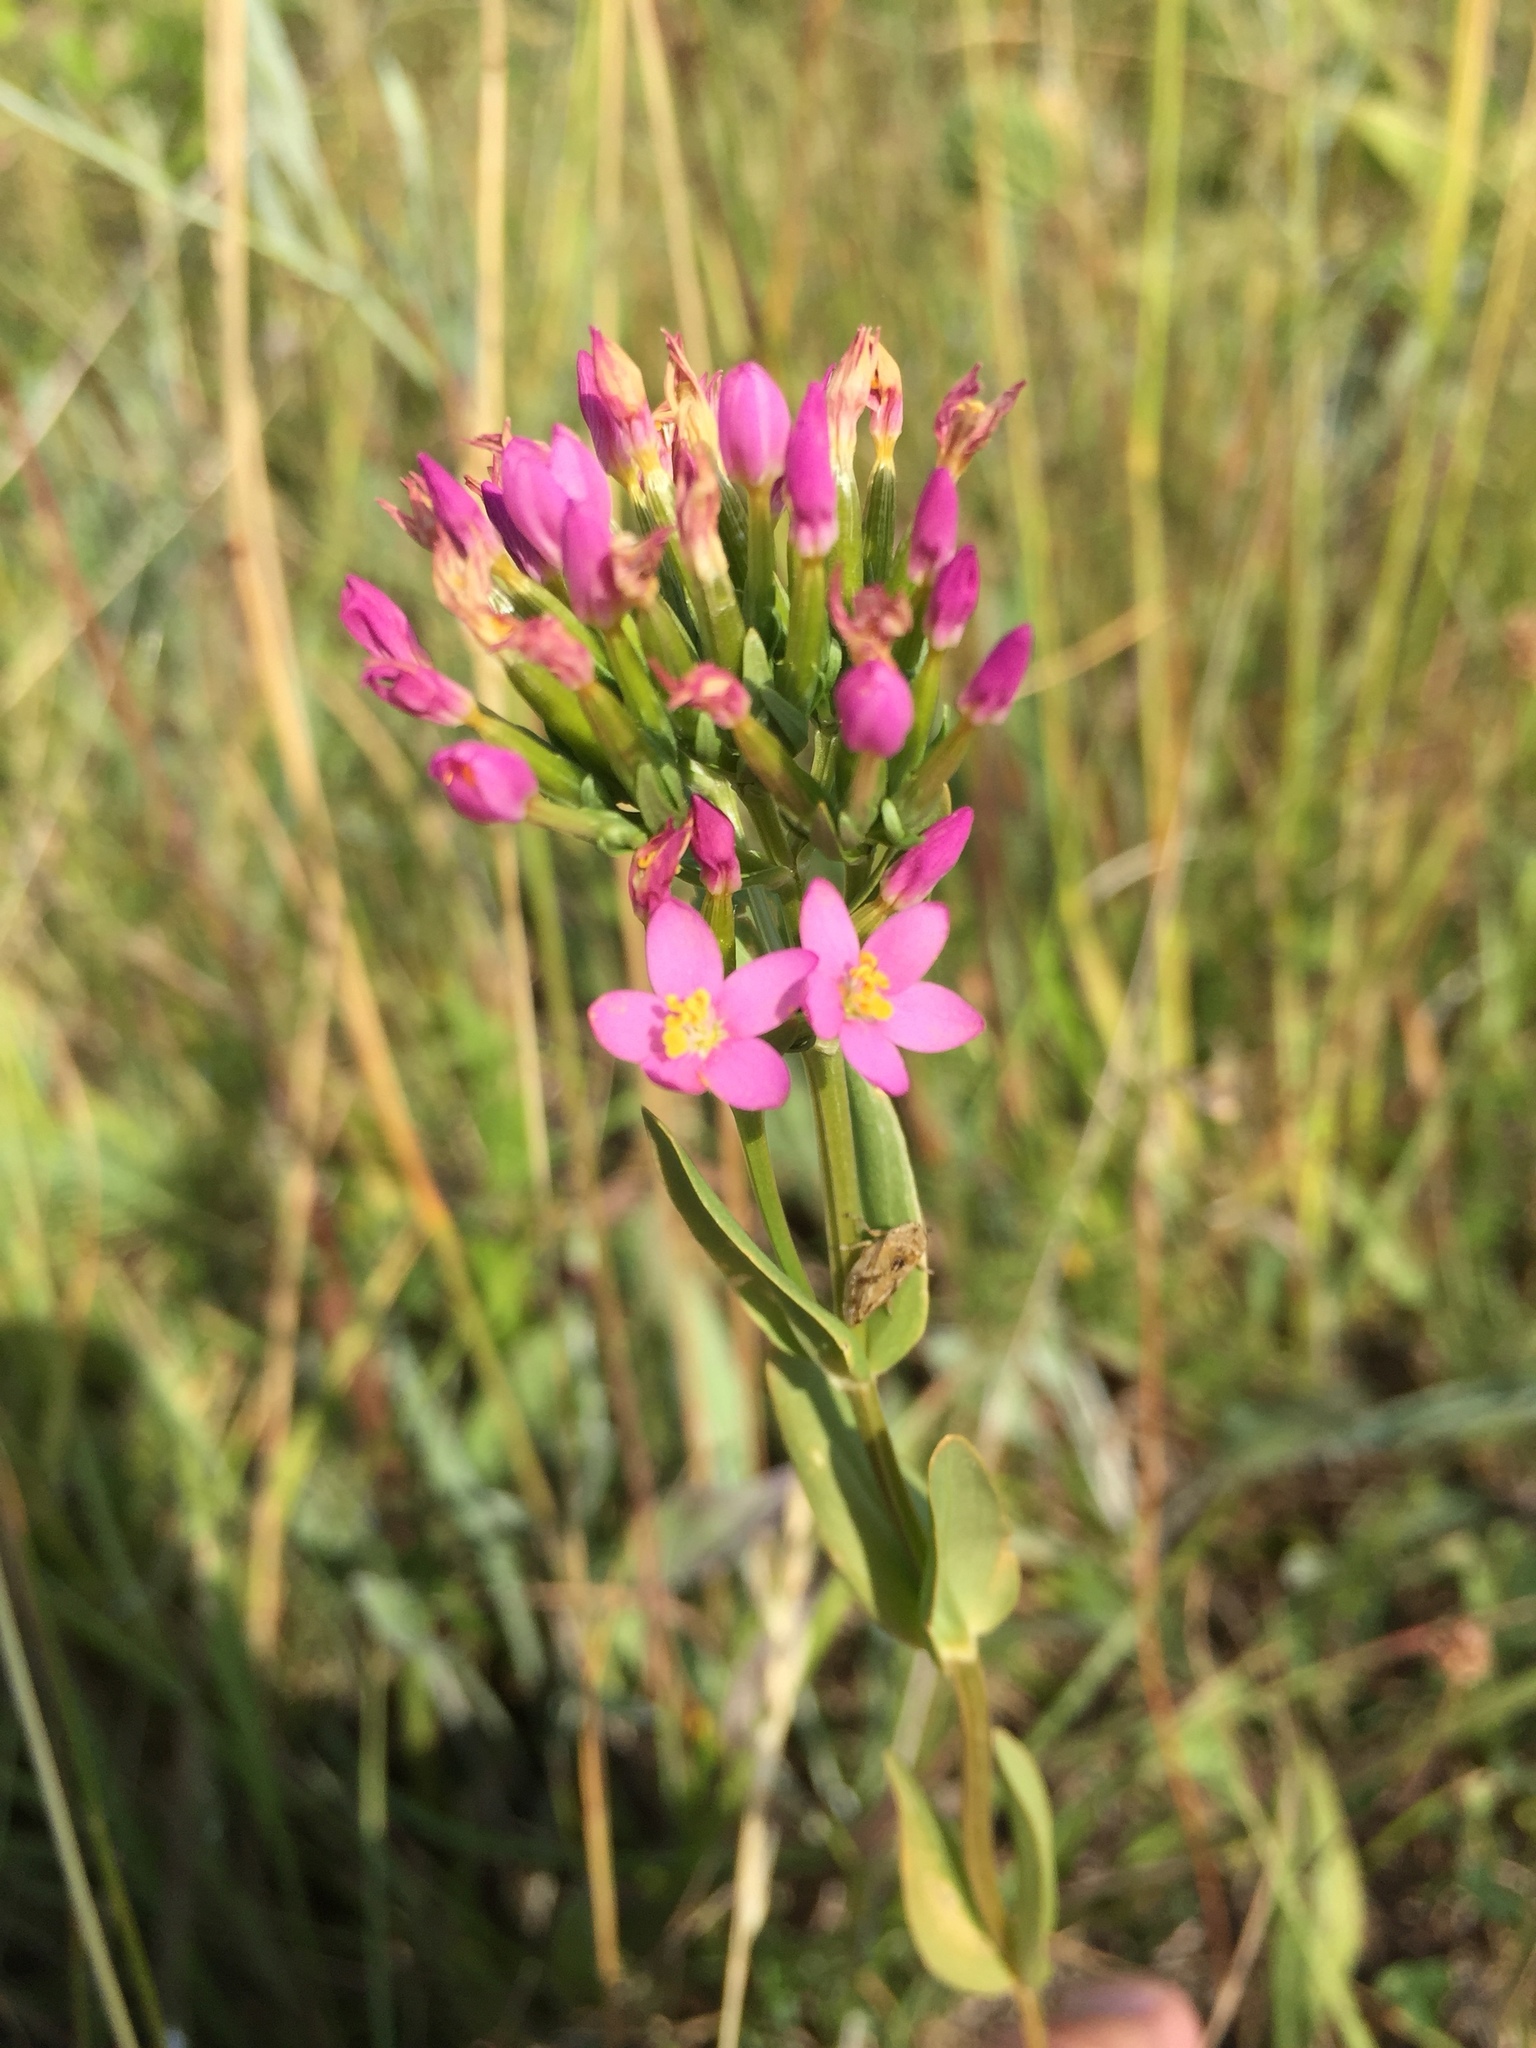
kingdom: Plantae
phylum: Tracheophyta
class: Magnoliopsida
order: Gentianales
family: Gentianaceae
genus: Centaurium
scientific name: Centaurium erythraea
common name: Common centaury
